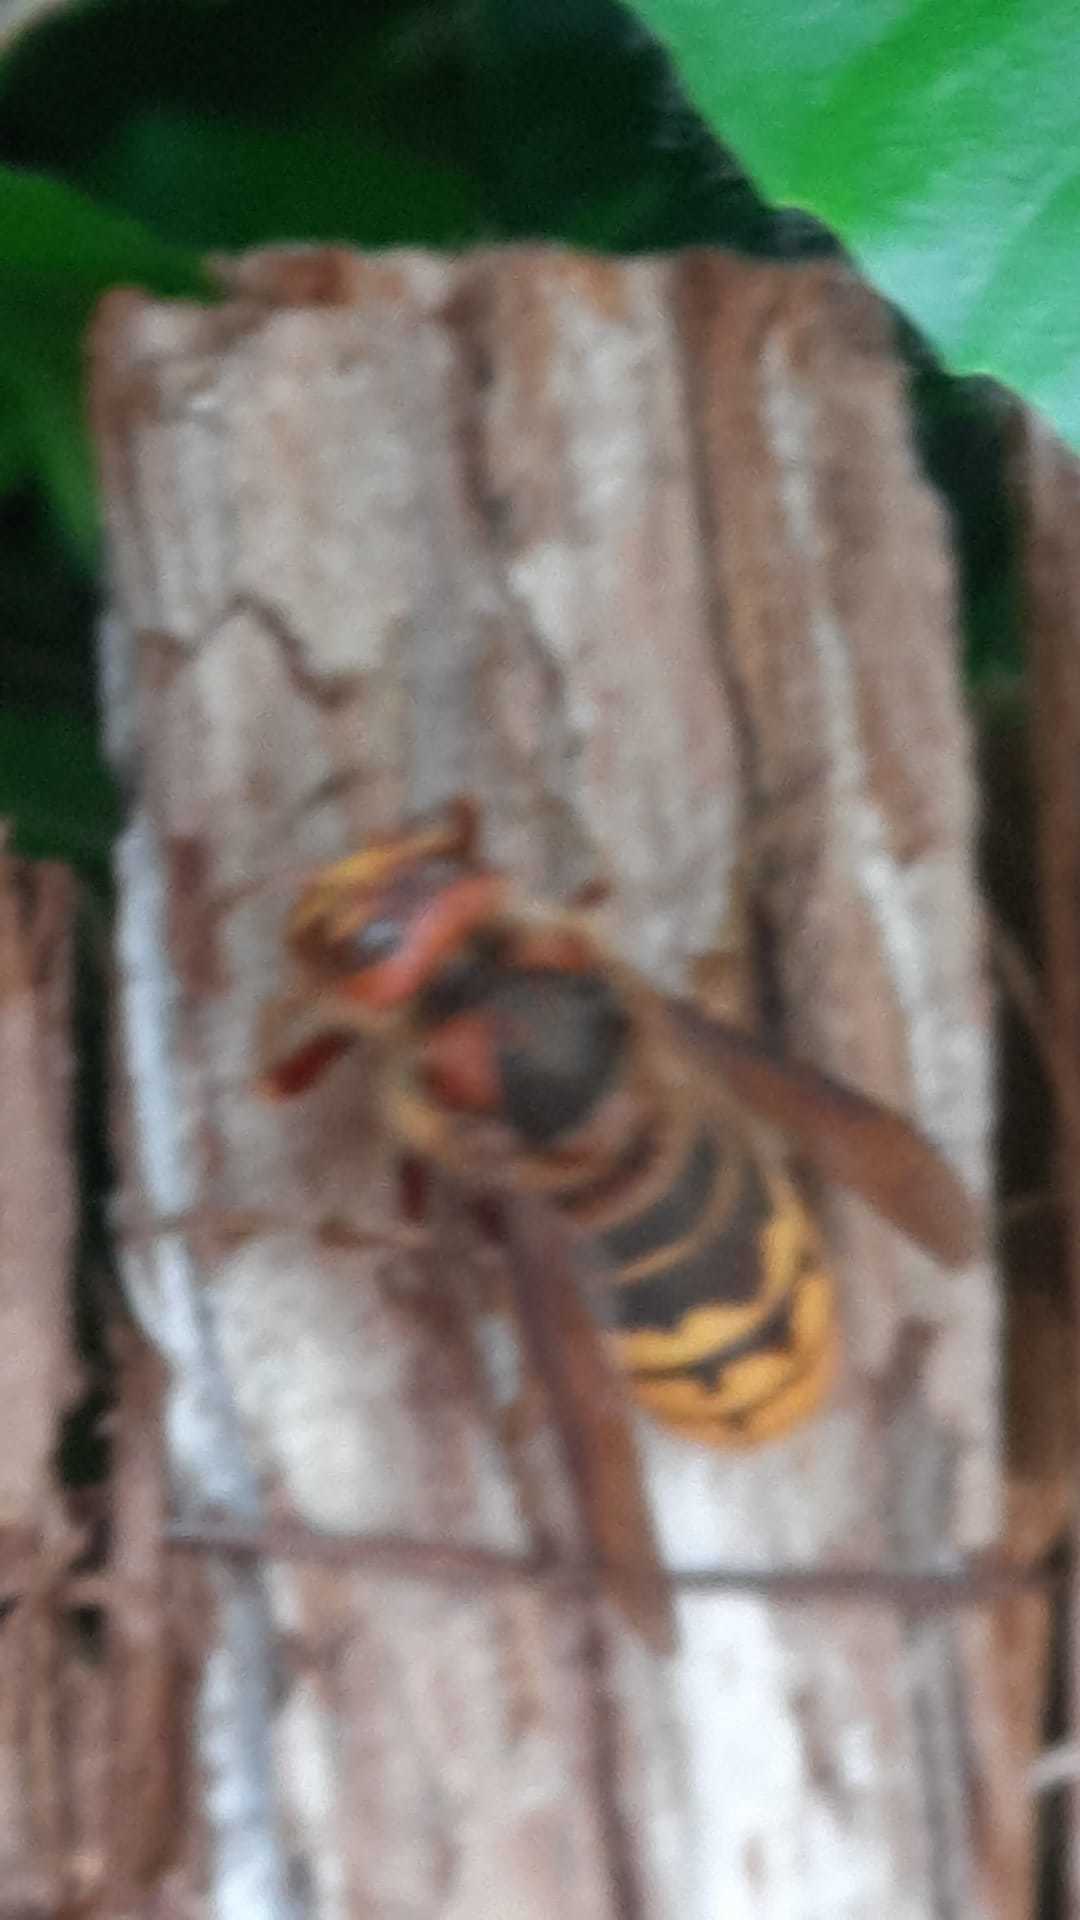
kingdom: Animalia
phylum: Arthropoda
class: Insecta
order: Hymenoptera
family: Vespidae
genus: Vespa
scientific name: Vespa crabro
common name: Hornet
